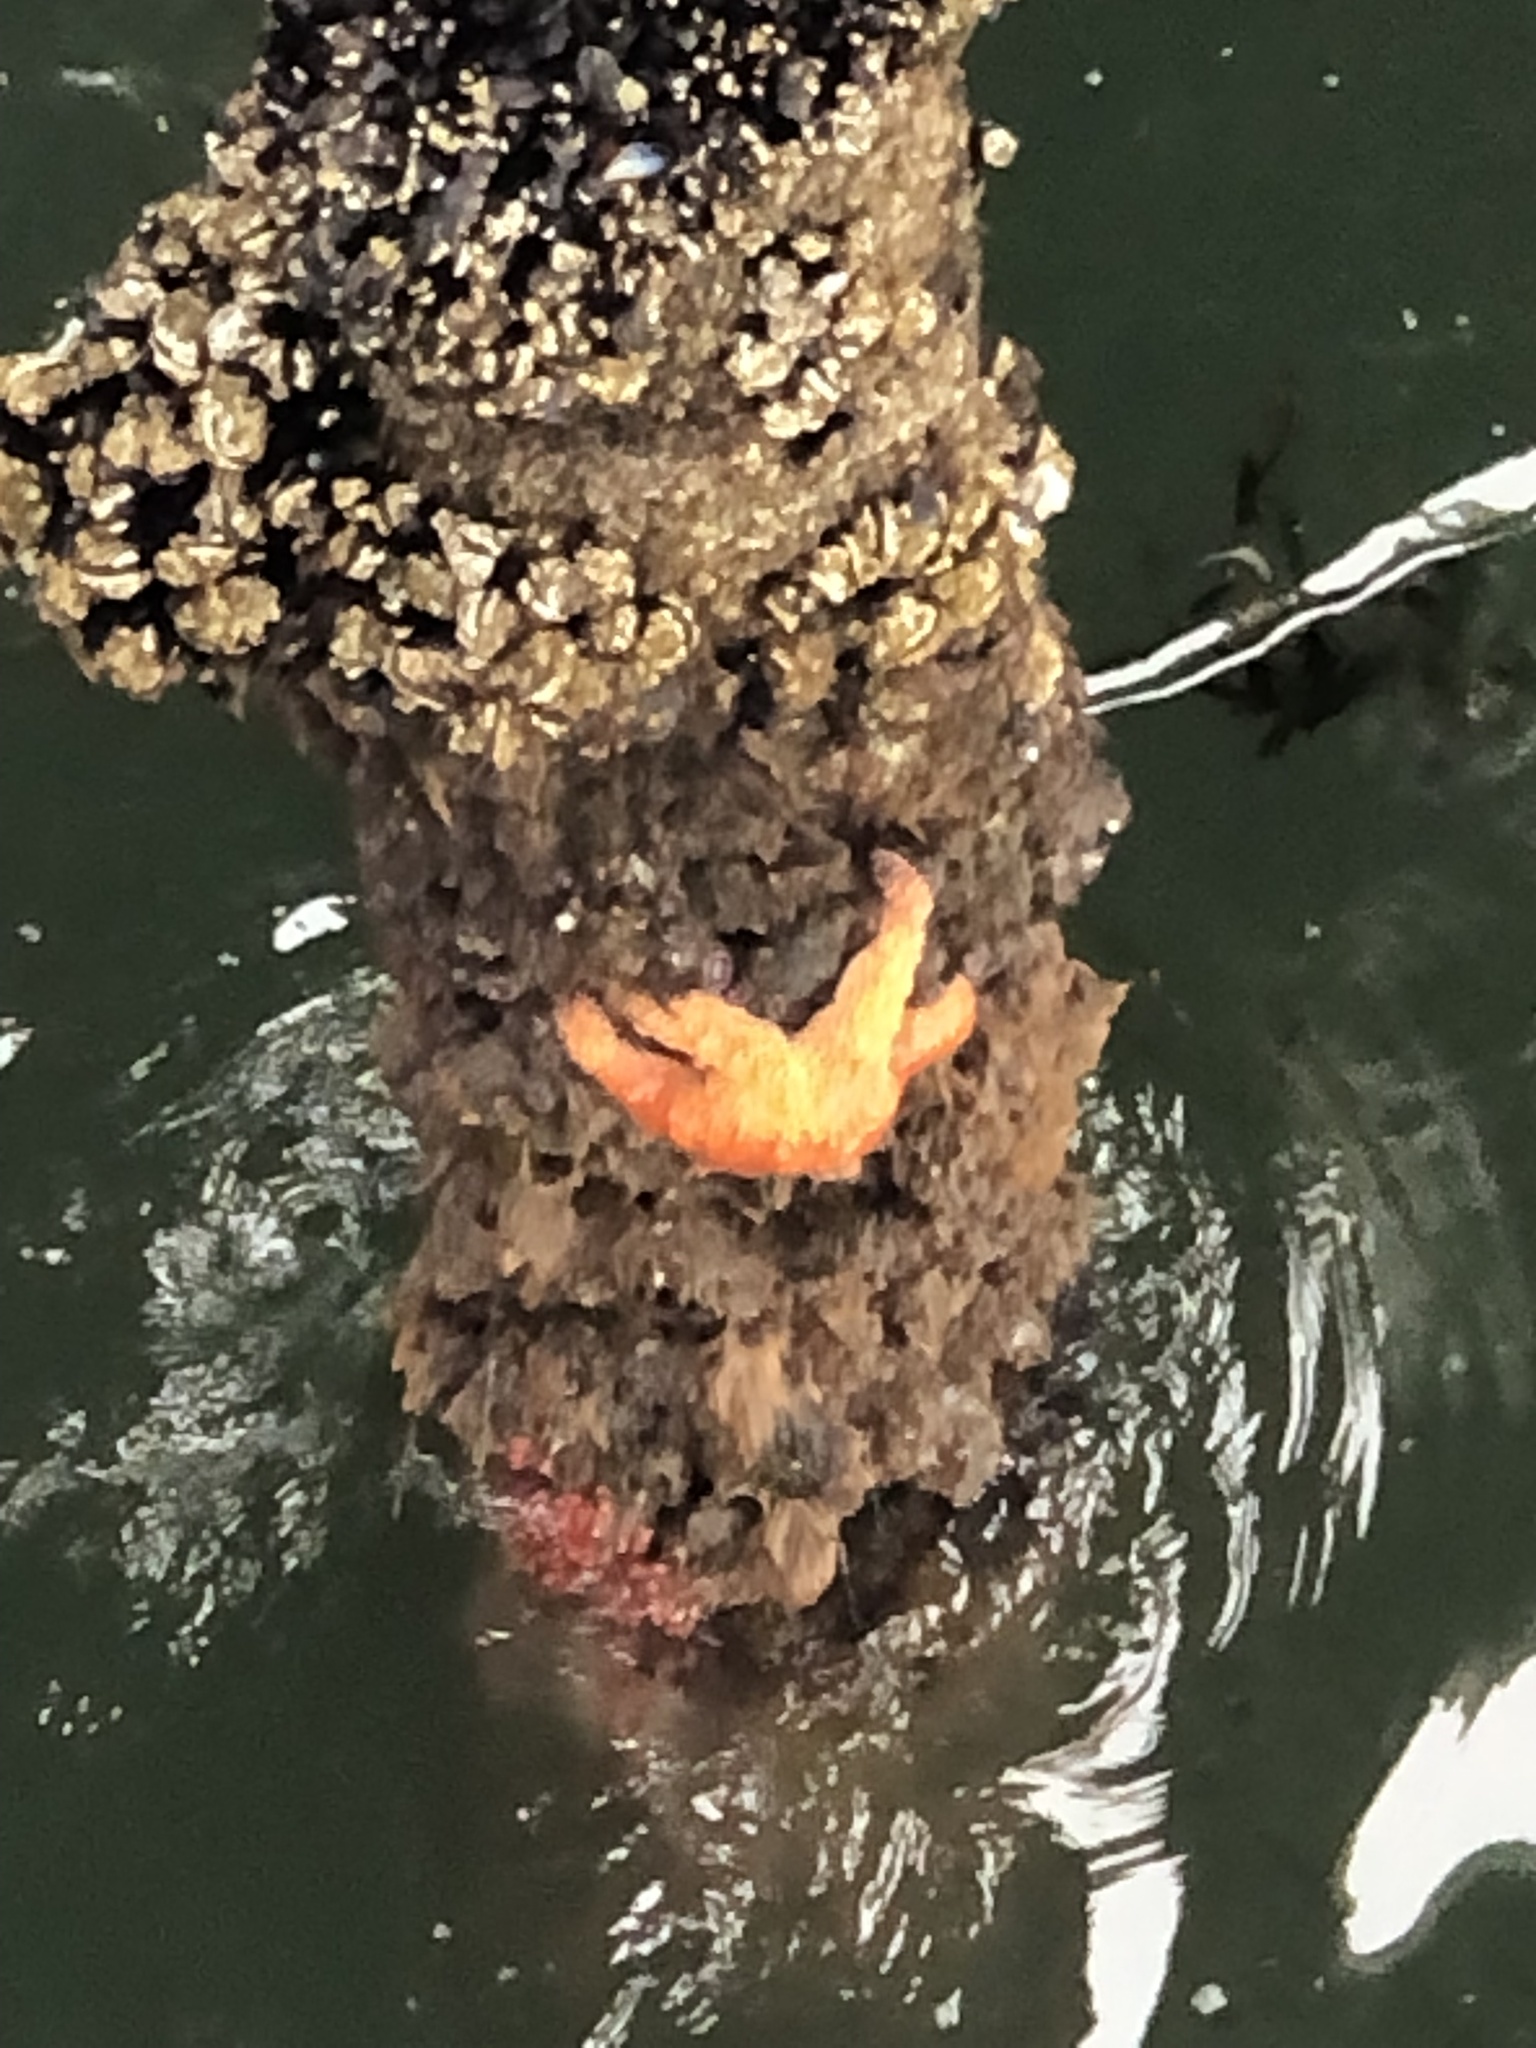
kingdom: Animalia
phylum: Echinodermata
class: Asteroidea
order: Forcipulatida
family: Asteriidae
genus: Pisaster
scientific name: Pisaster ochraceus
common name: Ochre stars
